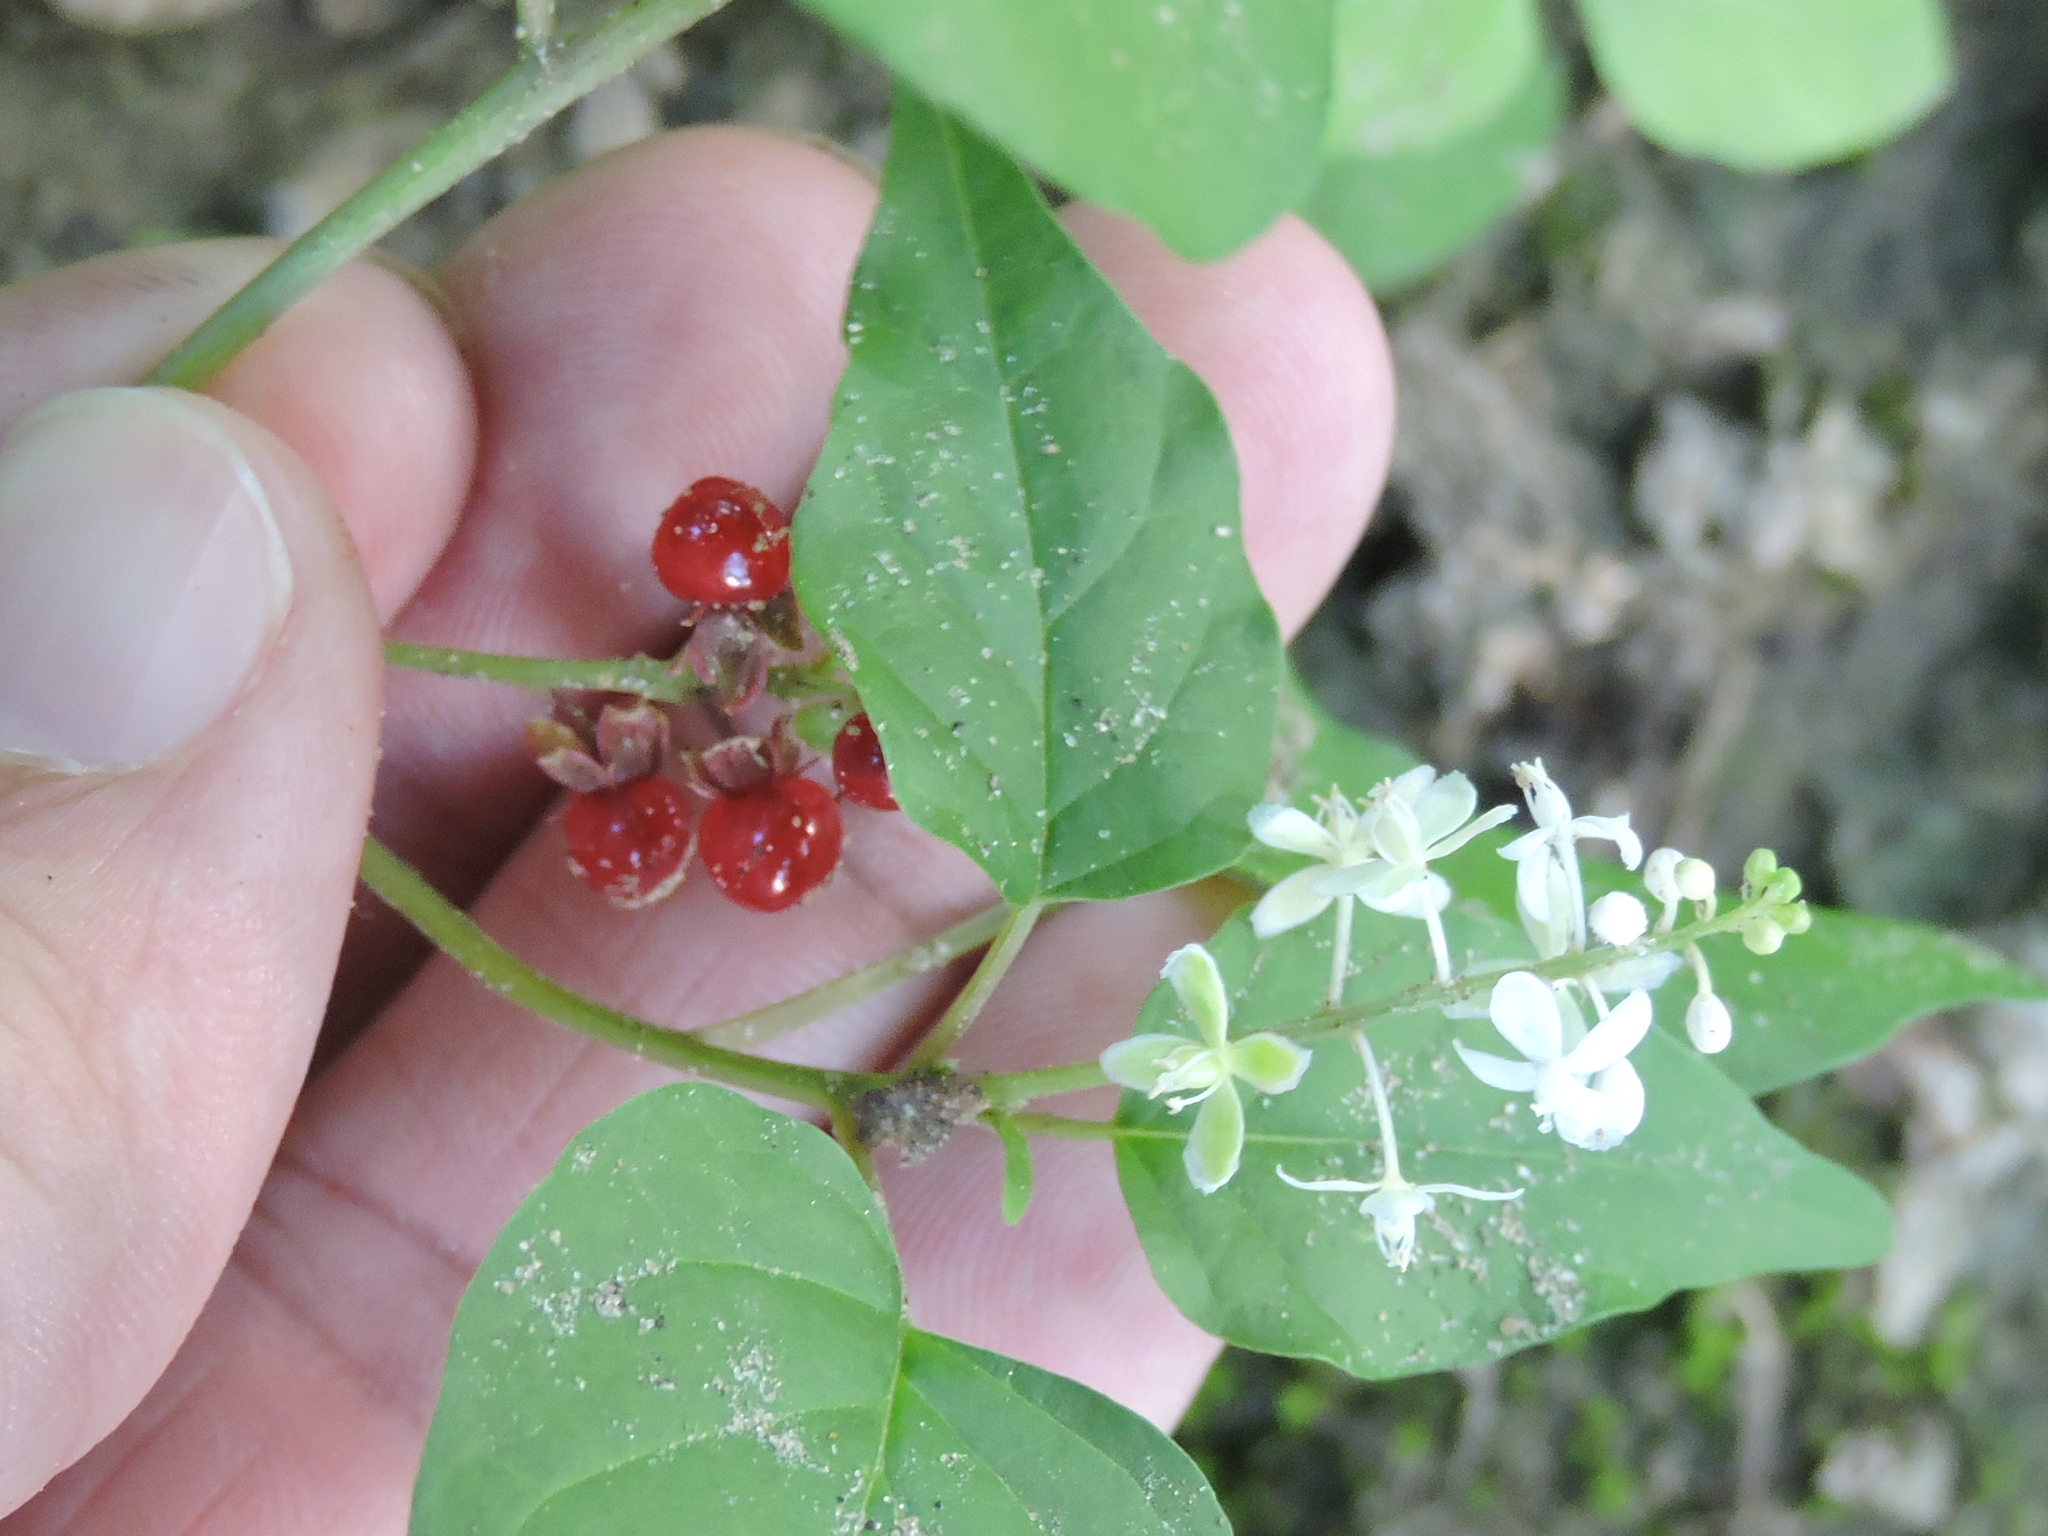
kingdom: Plantae
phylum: Tracheophyta
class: Magnoliopsida
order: Caryophyllales
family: Phytolaccaceae
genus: Rivina
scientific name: Rivina humilis
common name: Rougeplant
